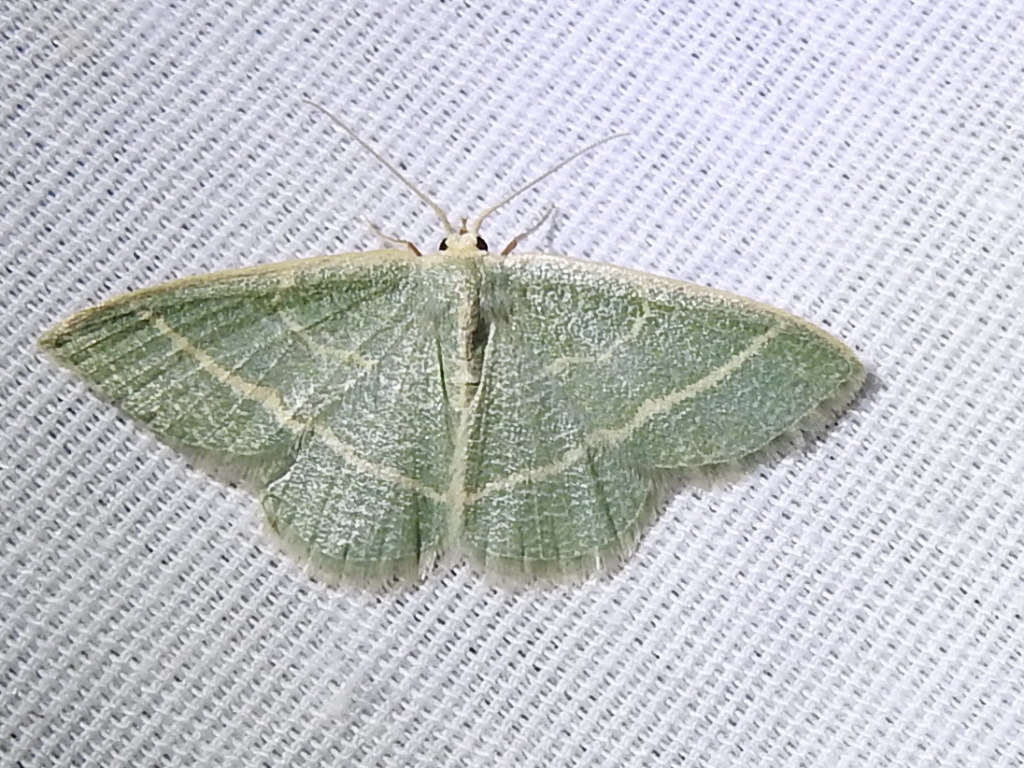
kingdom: Animalia
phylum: Arthropoda
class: Insecta
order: Lepidoptera
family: Geometridae
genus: Chlorochlamys
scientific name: Chlorochlamys chloroleucaria
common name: Blackberry looper
